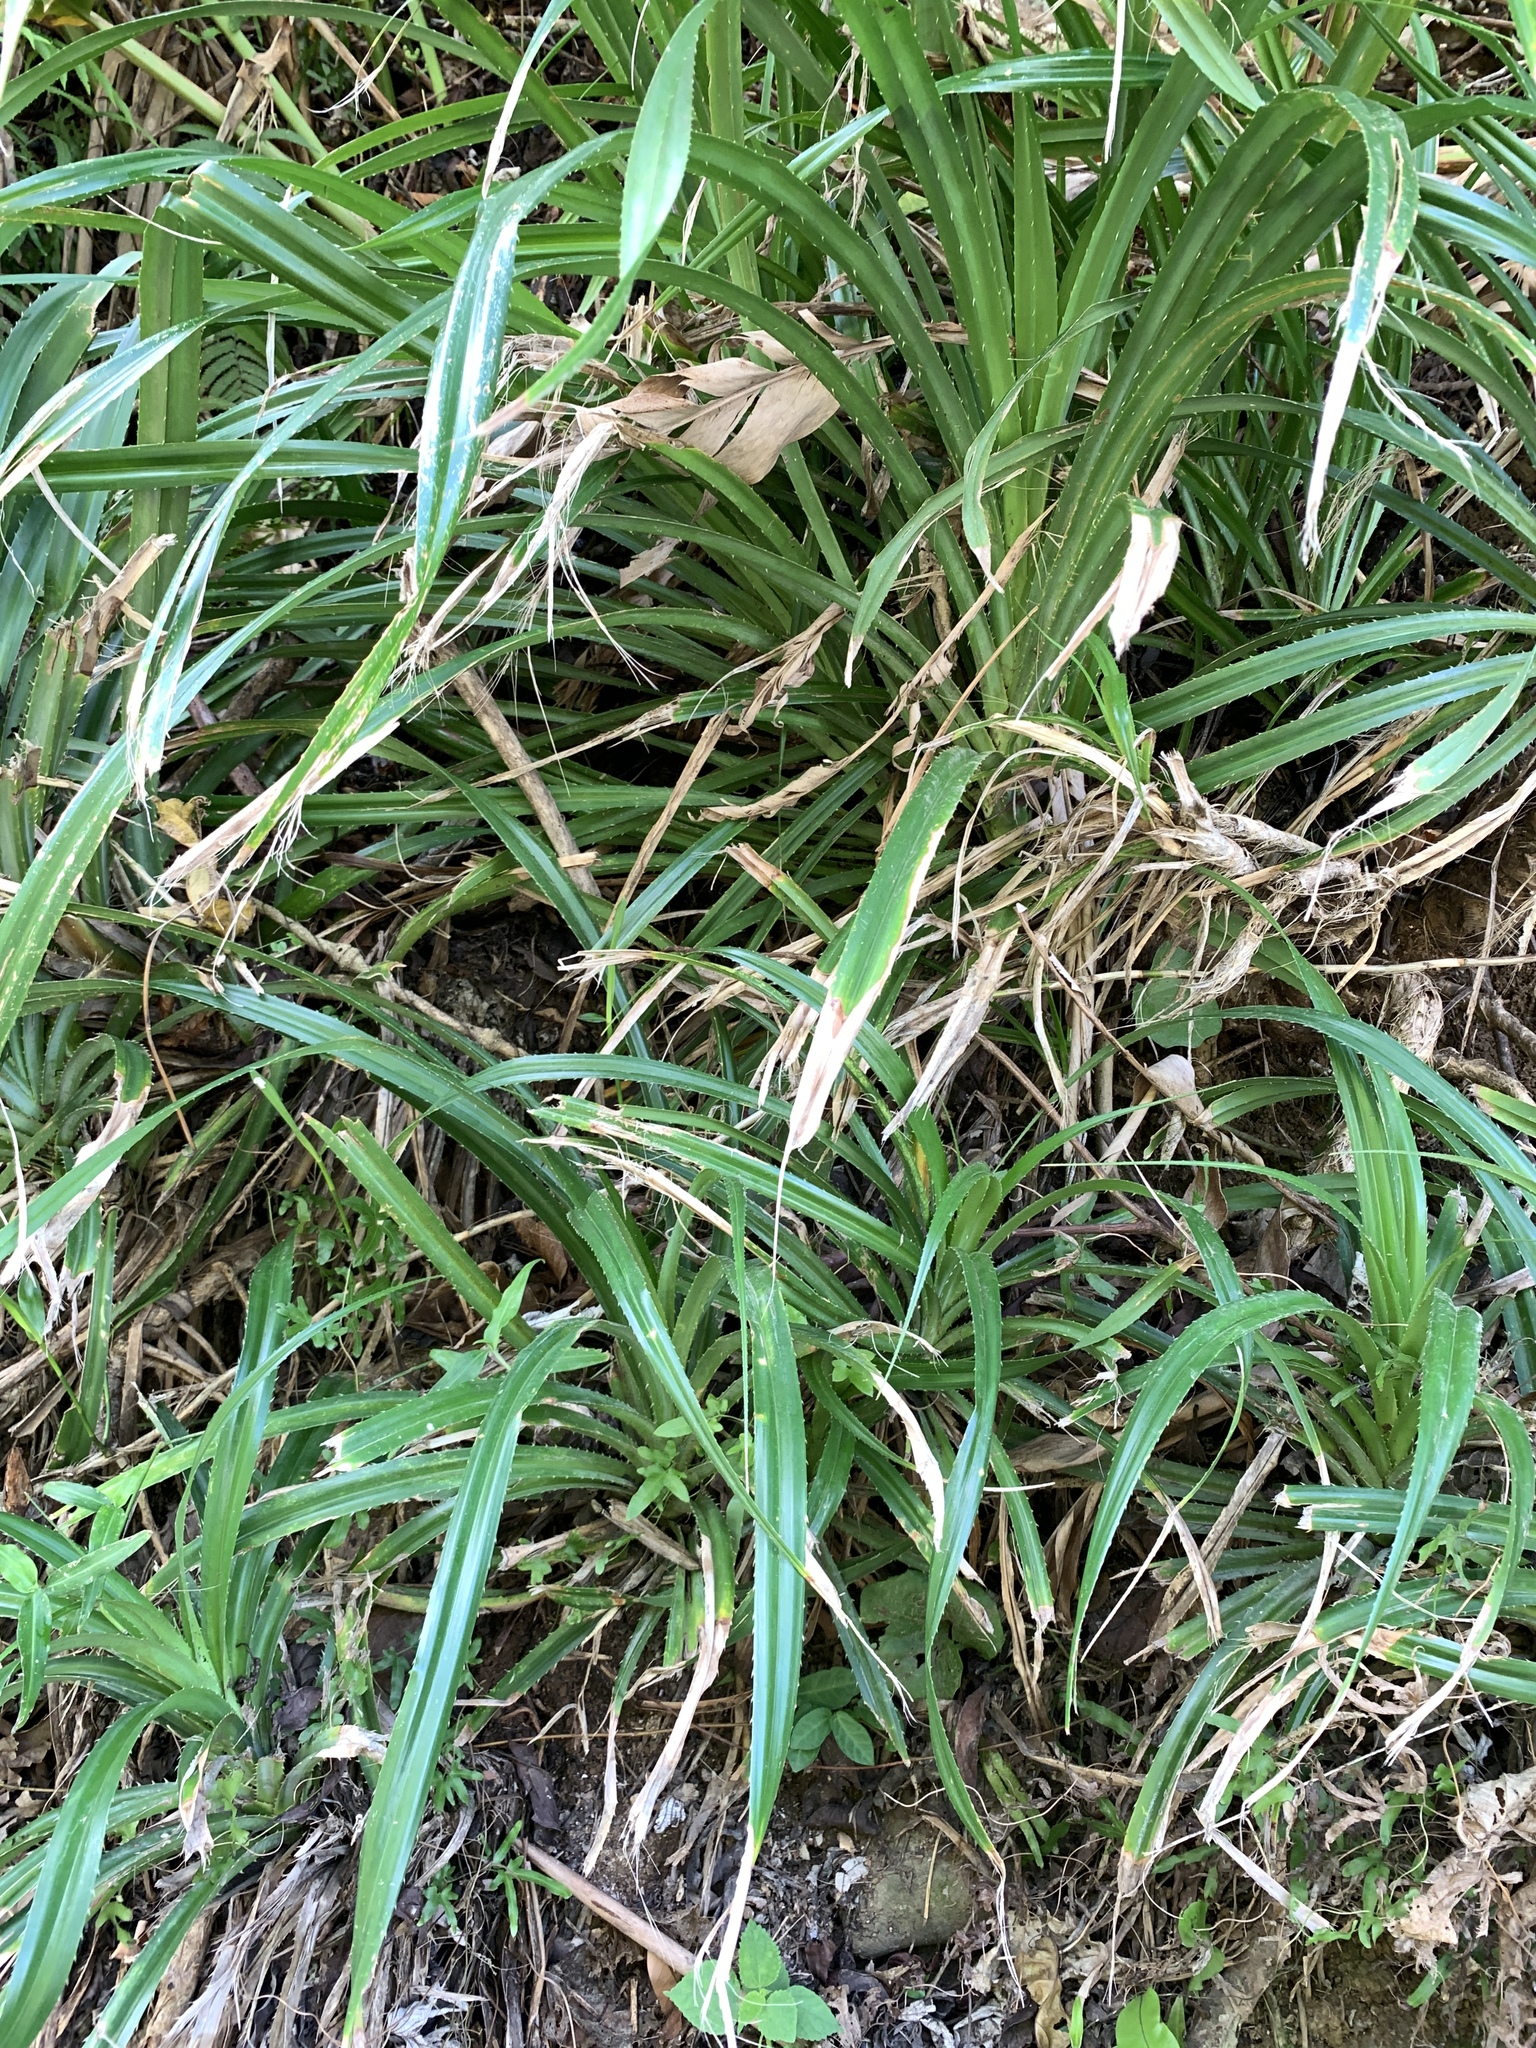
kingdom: Plantae
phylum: Tracheophyta
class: Liliopsida
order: Pandanales
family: Pandanaceae
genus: Pandanus
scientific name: Pandanus odorifer
